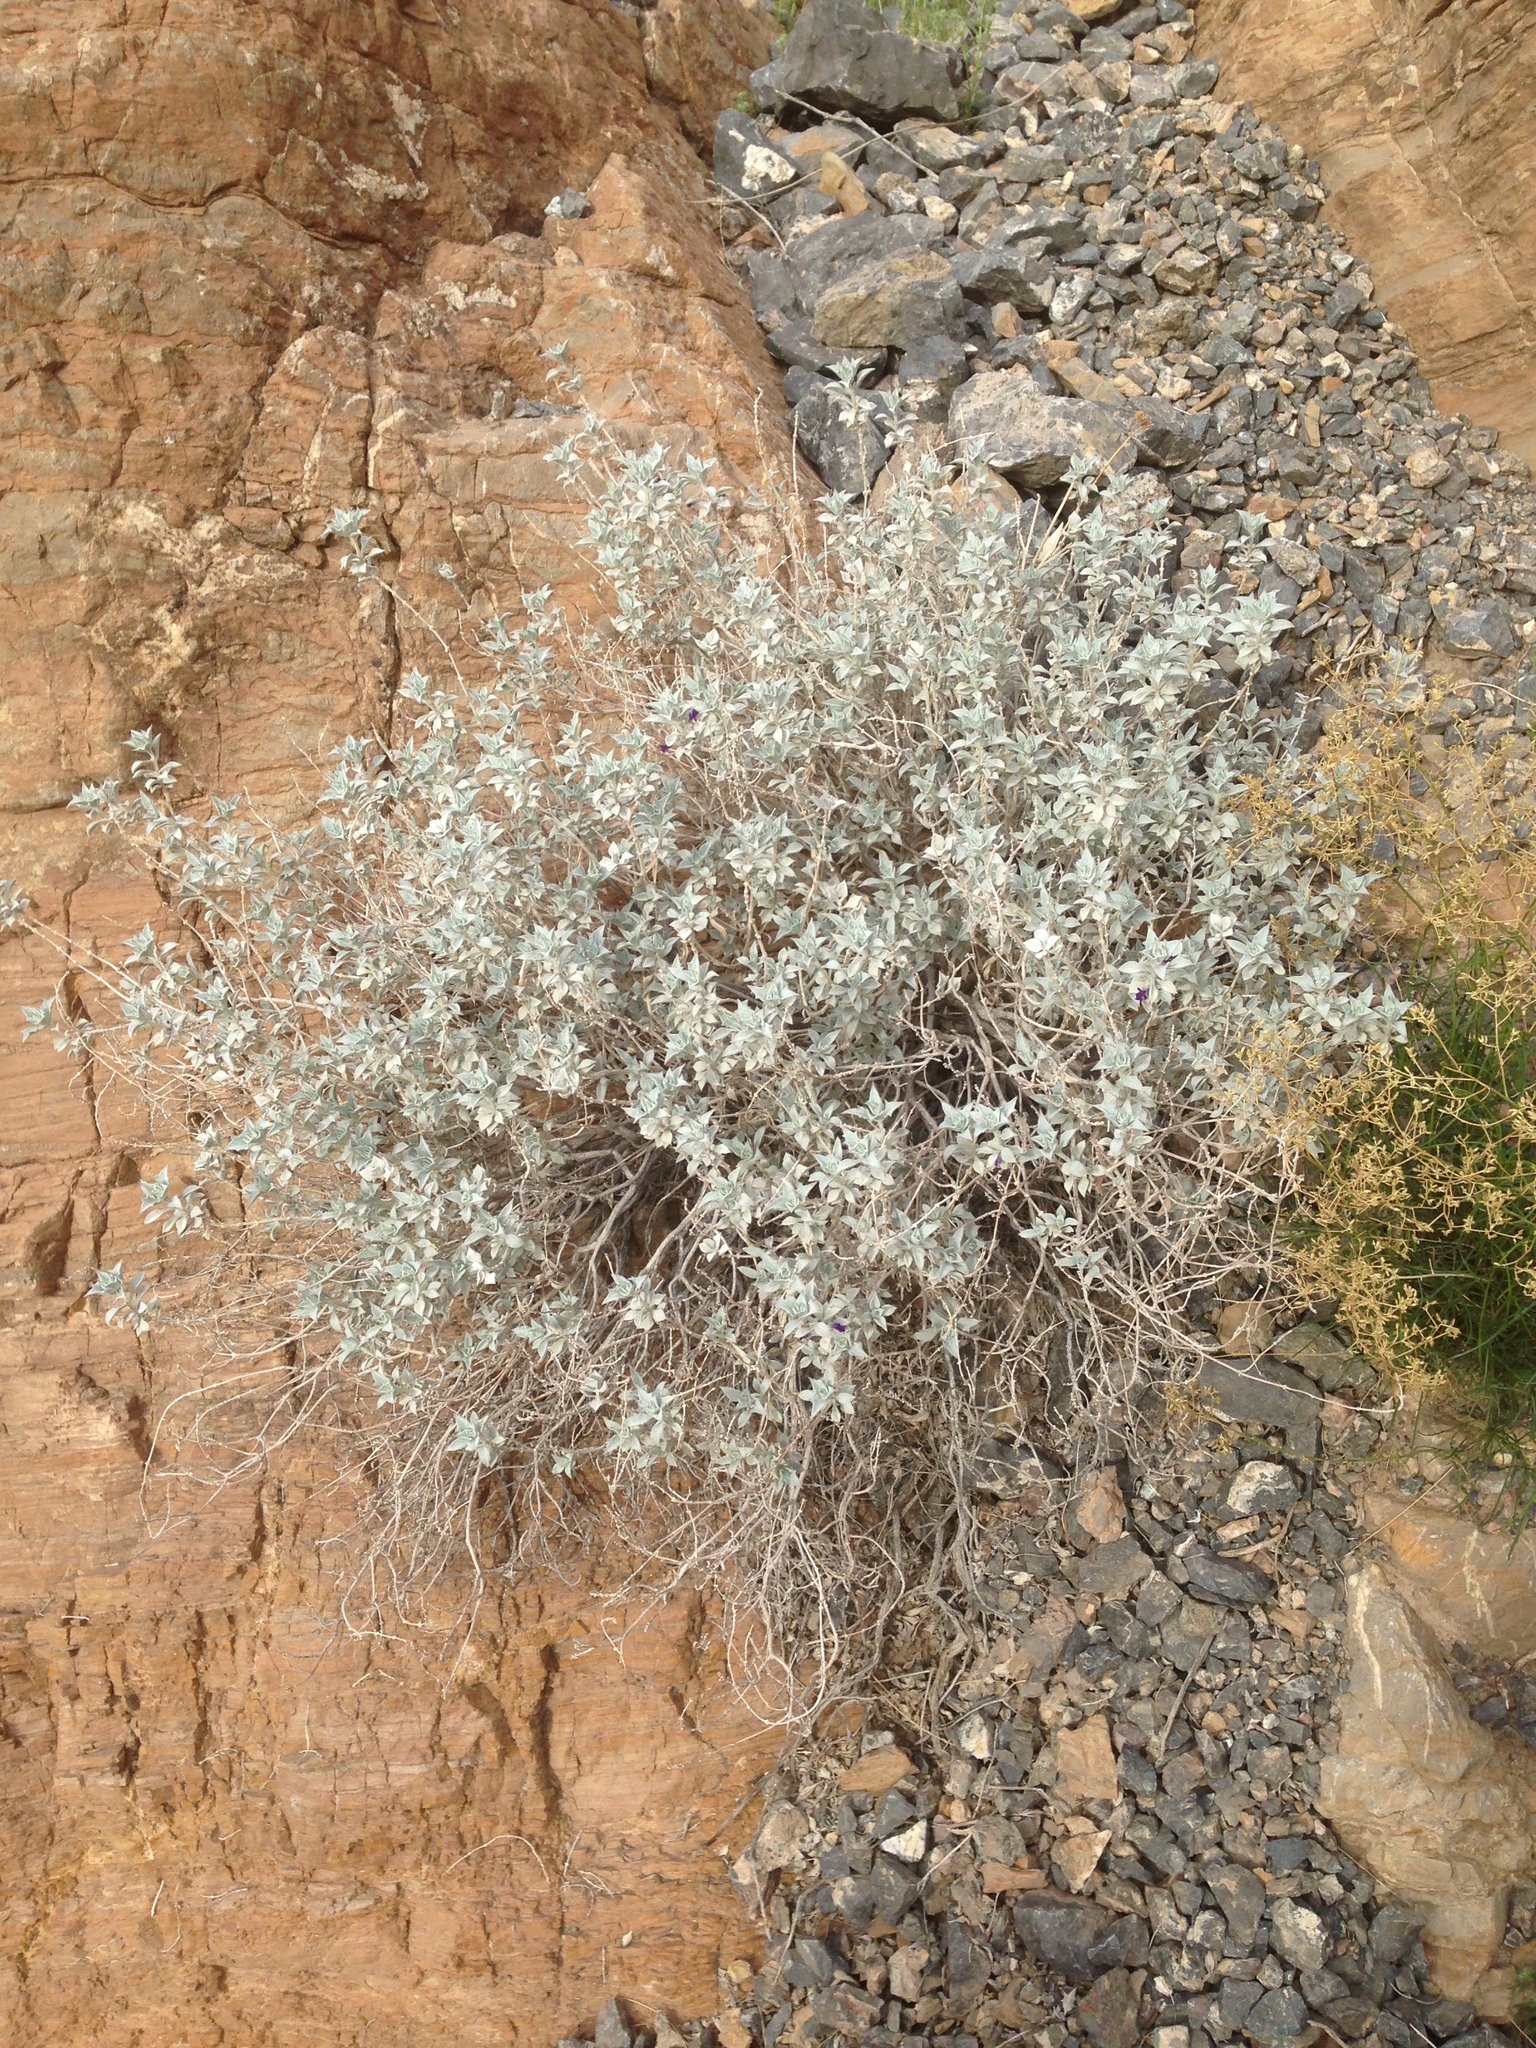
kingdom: Plantae
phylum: Tracheophyta
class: Magnoliopsida
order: Lamiales
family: Lamiaceae
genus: Salvia
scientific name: Salvia funerea
